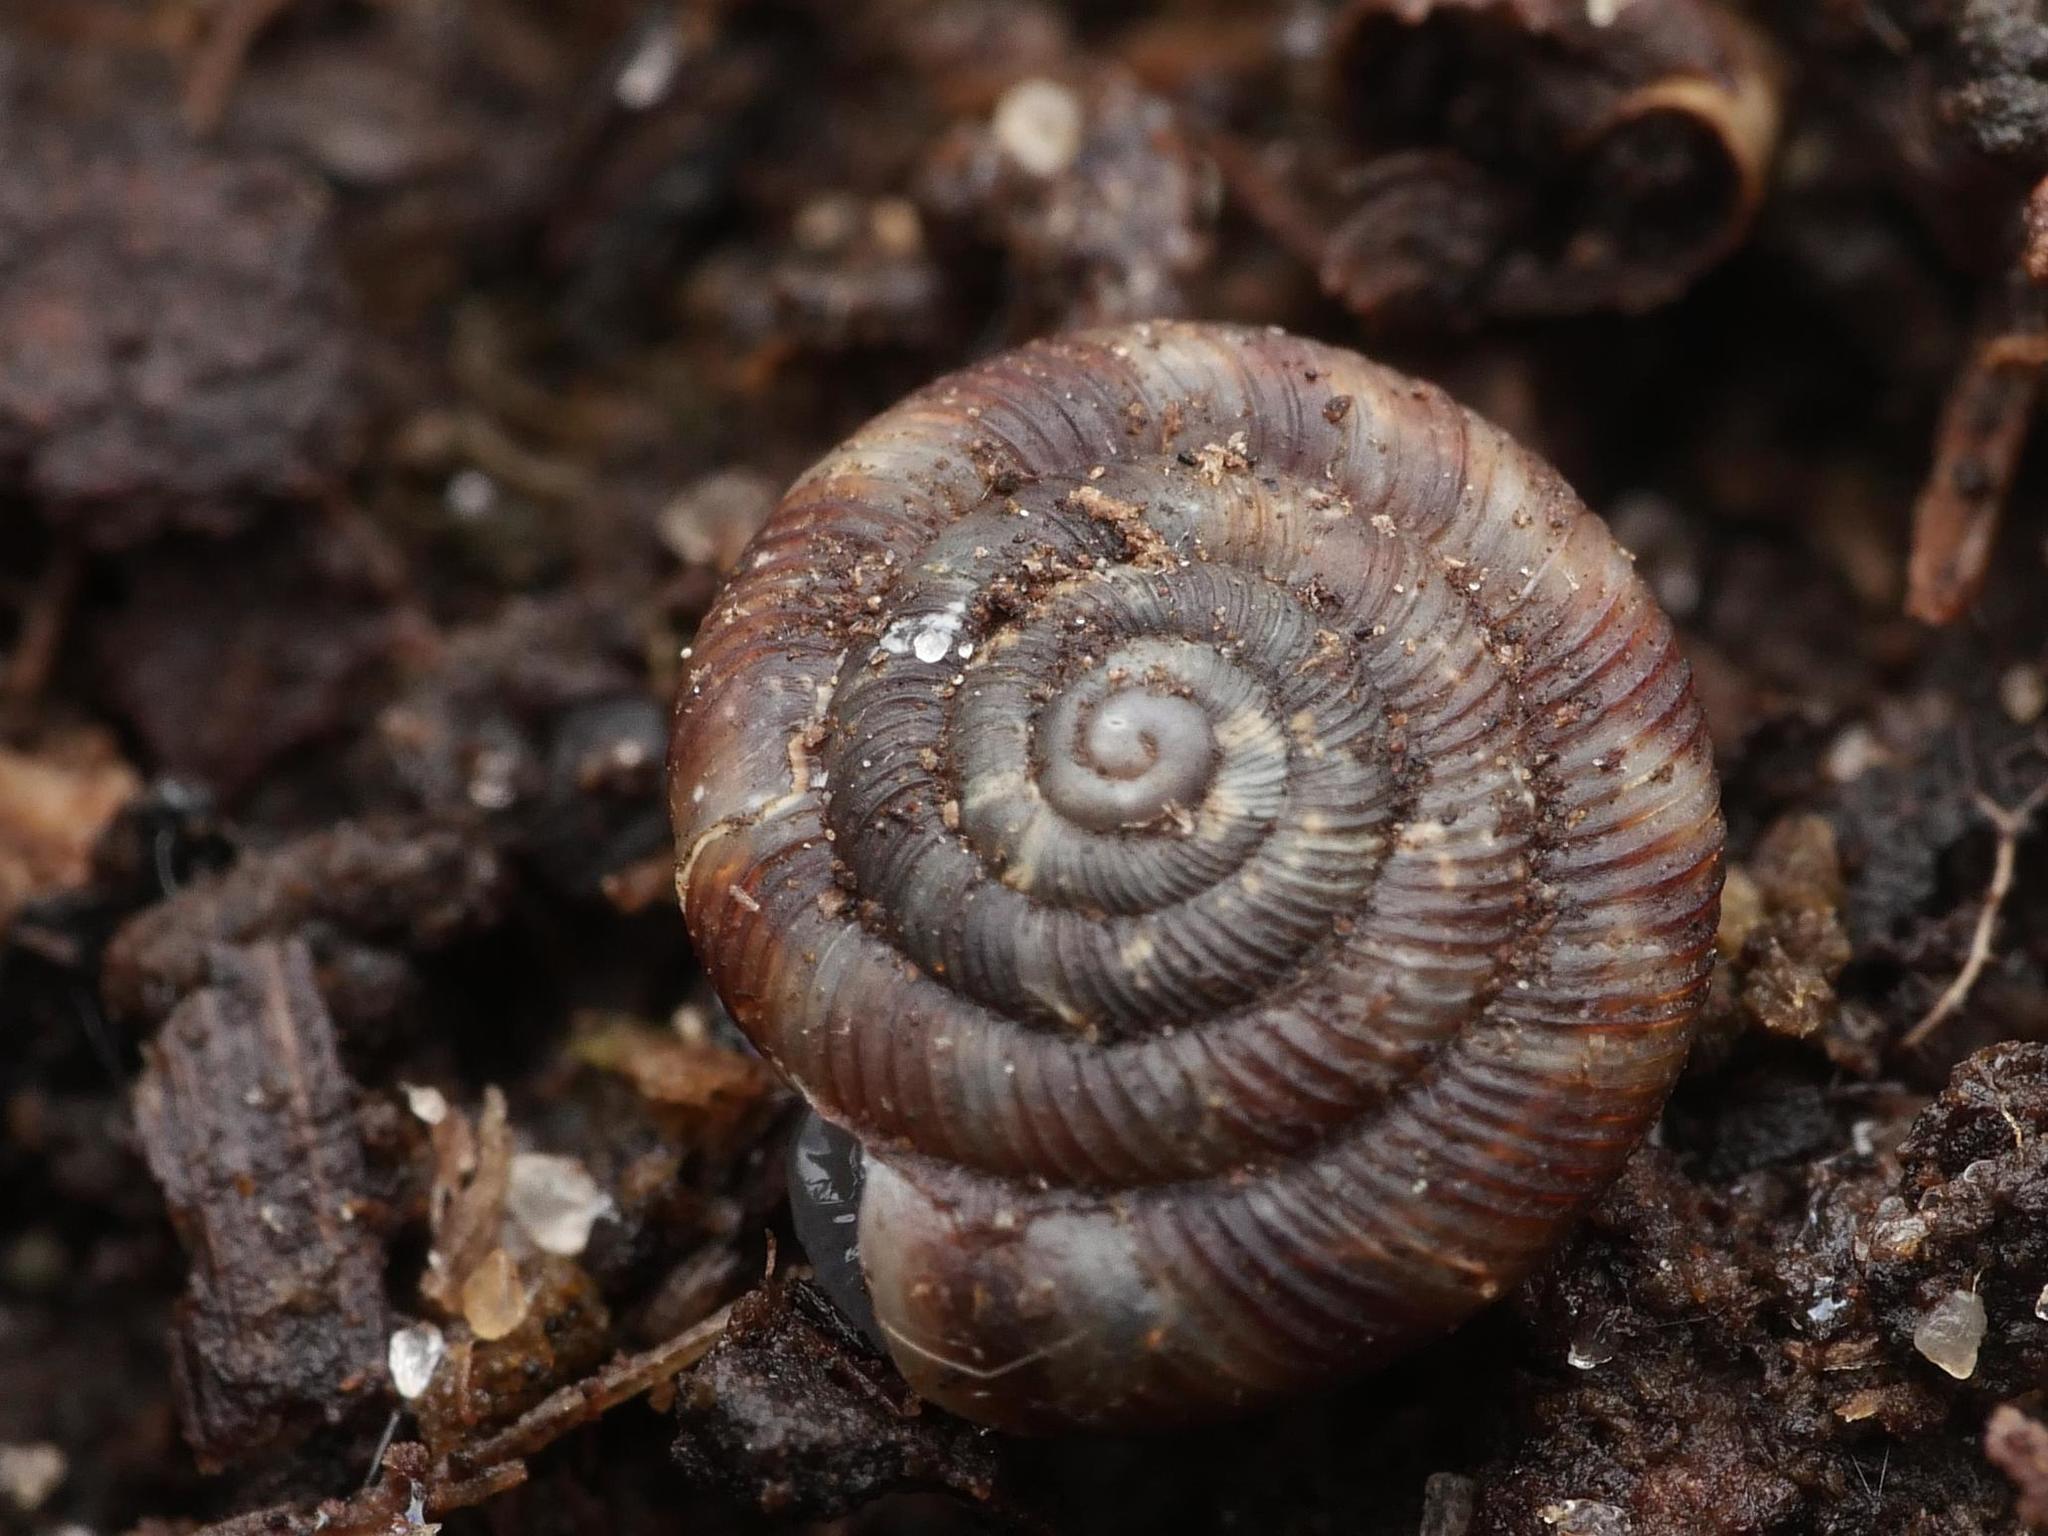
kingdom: Animalia
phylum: Mollusca
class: Gastropoda
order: Stylommatophora
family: Discidae
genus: Discus
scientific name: Discus rotundatus
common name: Rounded snail
